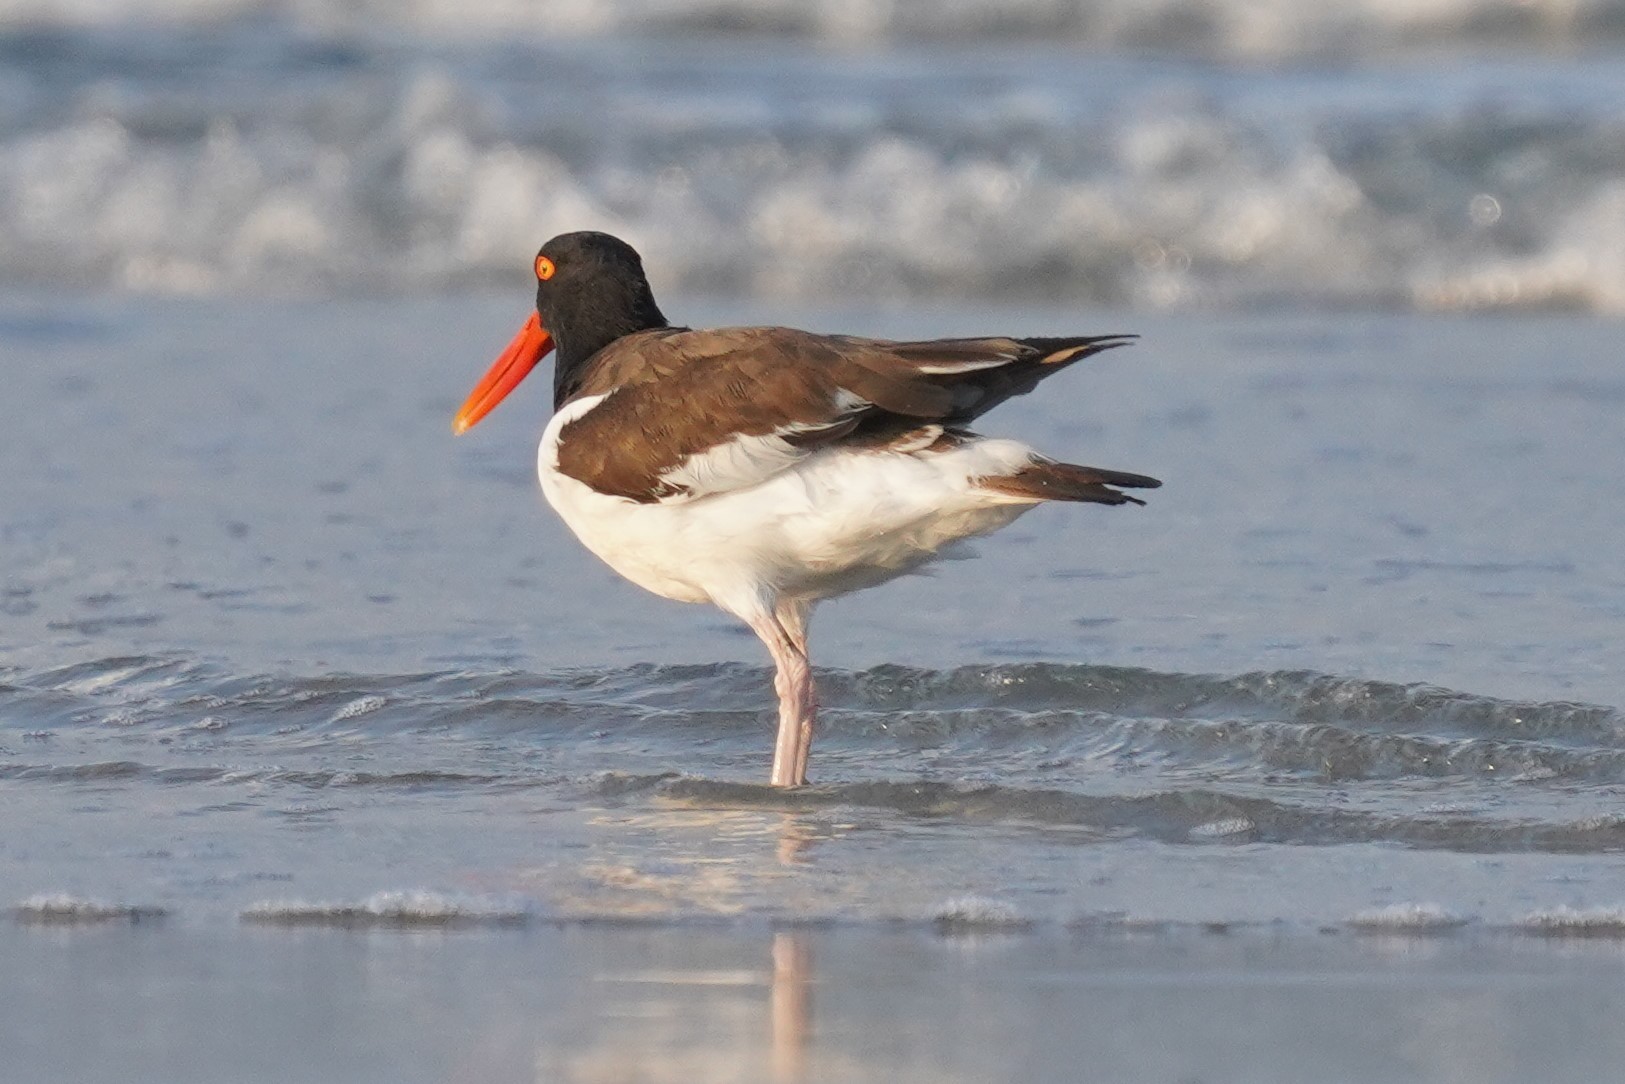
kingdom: Animalia
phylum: Chordata
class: Aves
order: Charadriiformes
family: Haematopodidae
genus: Haematopus
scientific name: Haematopus palliatus
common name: American oystercatcher
